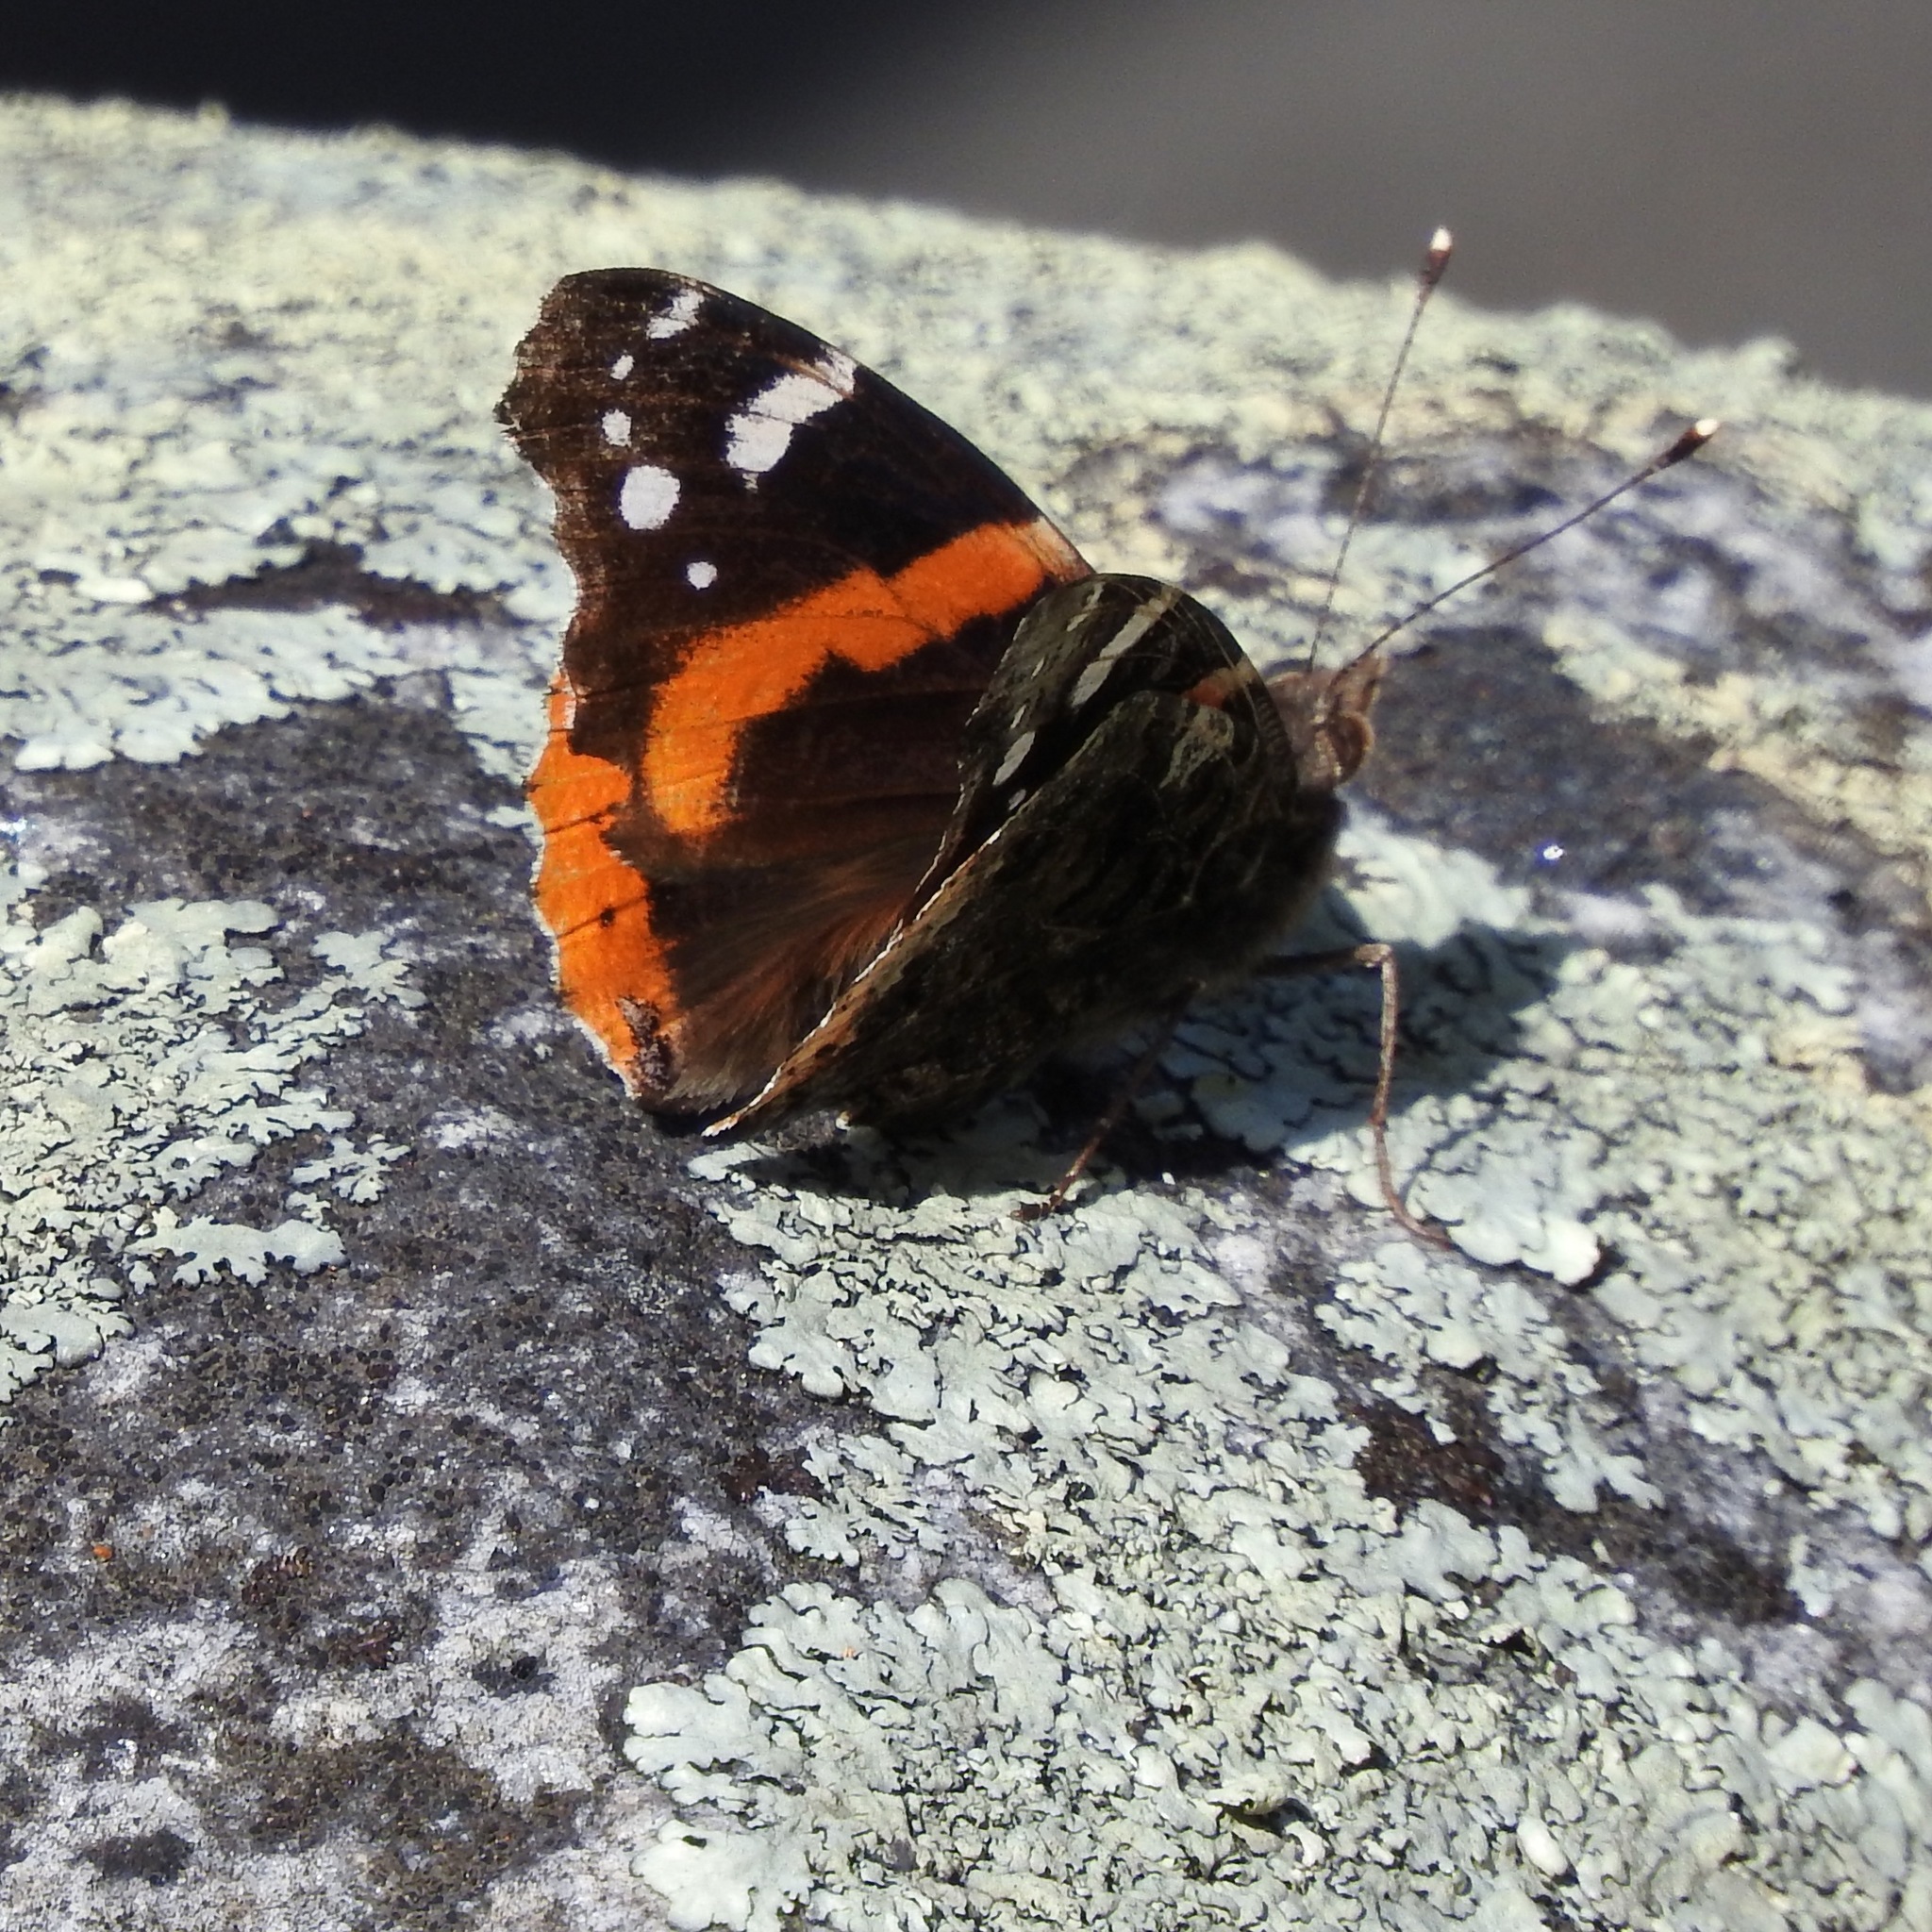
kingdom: Animalia
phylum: Arthropoda
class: Insecta
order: Lepidoptera
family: Nymphalidae
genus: Vanessa
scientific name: Vanessa atalanta
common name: Red admiral
